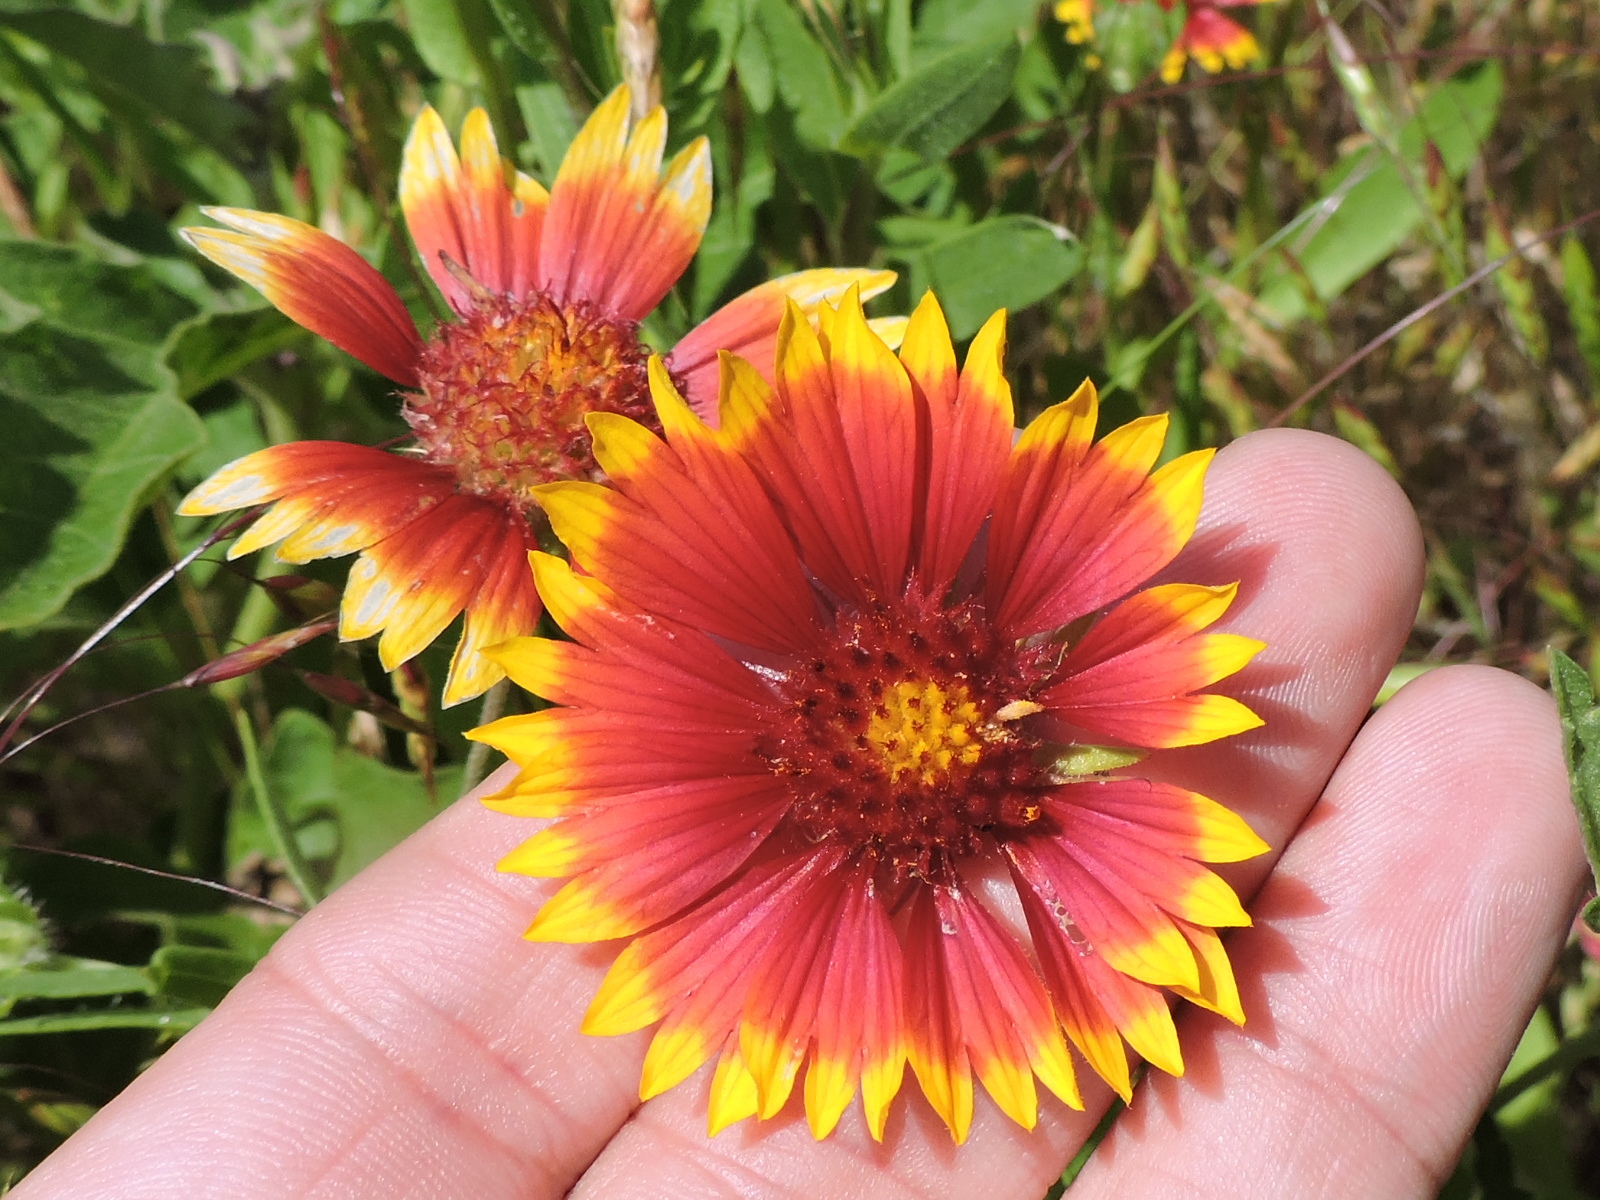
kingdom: Plantae
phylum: Tracheophyta
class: Magnoliopsida
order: Asterales
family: Asteraceae
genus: Gaillardia
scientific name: Gaillardia pulchella
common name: Firewheel
